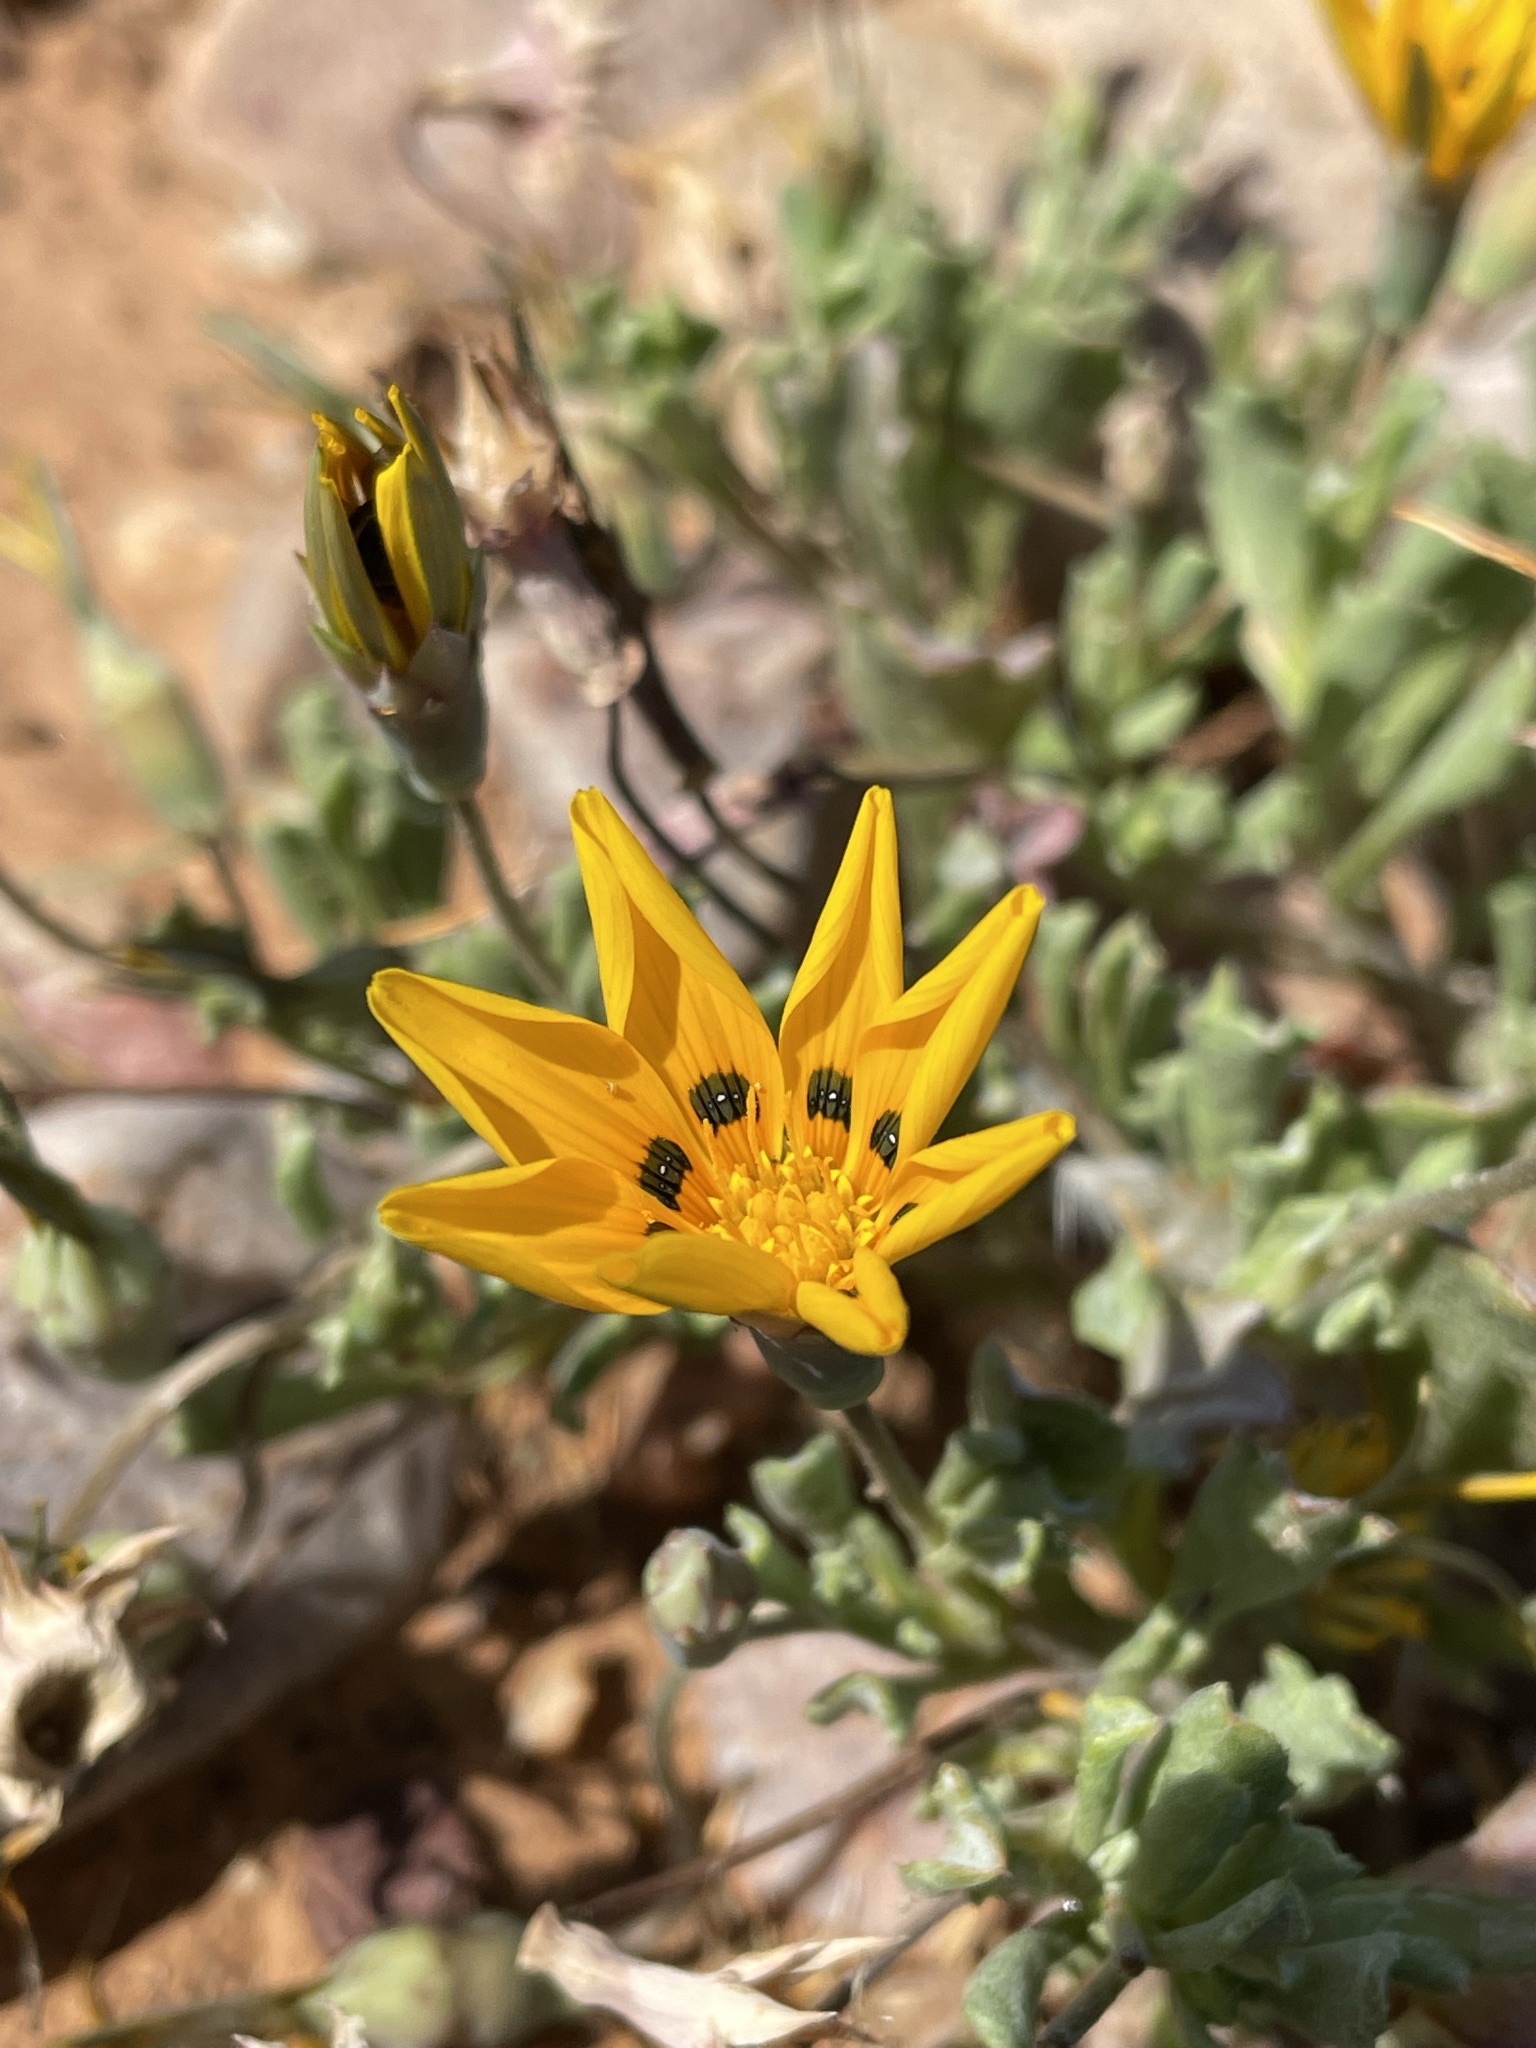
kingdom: Plantae
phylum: Tracheophyta
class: Magnoliopsida
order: Asterales
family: Asteraceae
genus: Gazania
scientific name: Gazania lichtensteinii
